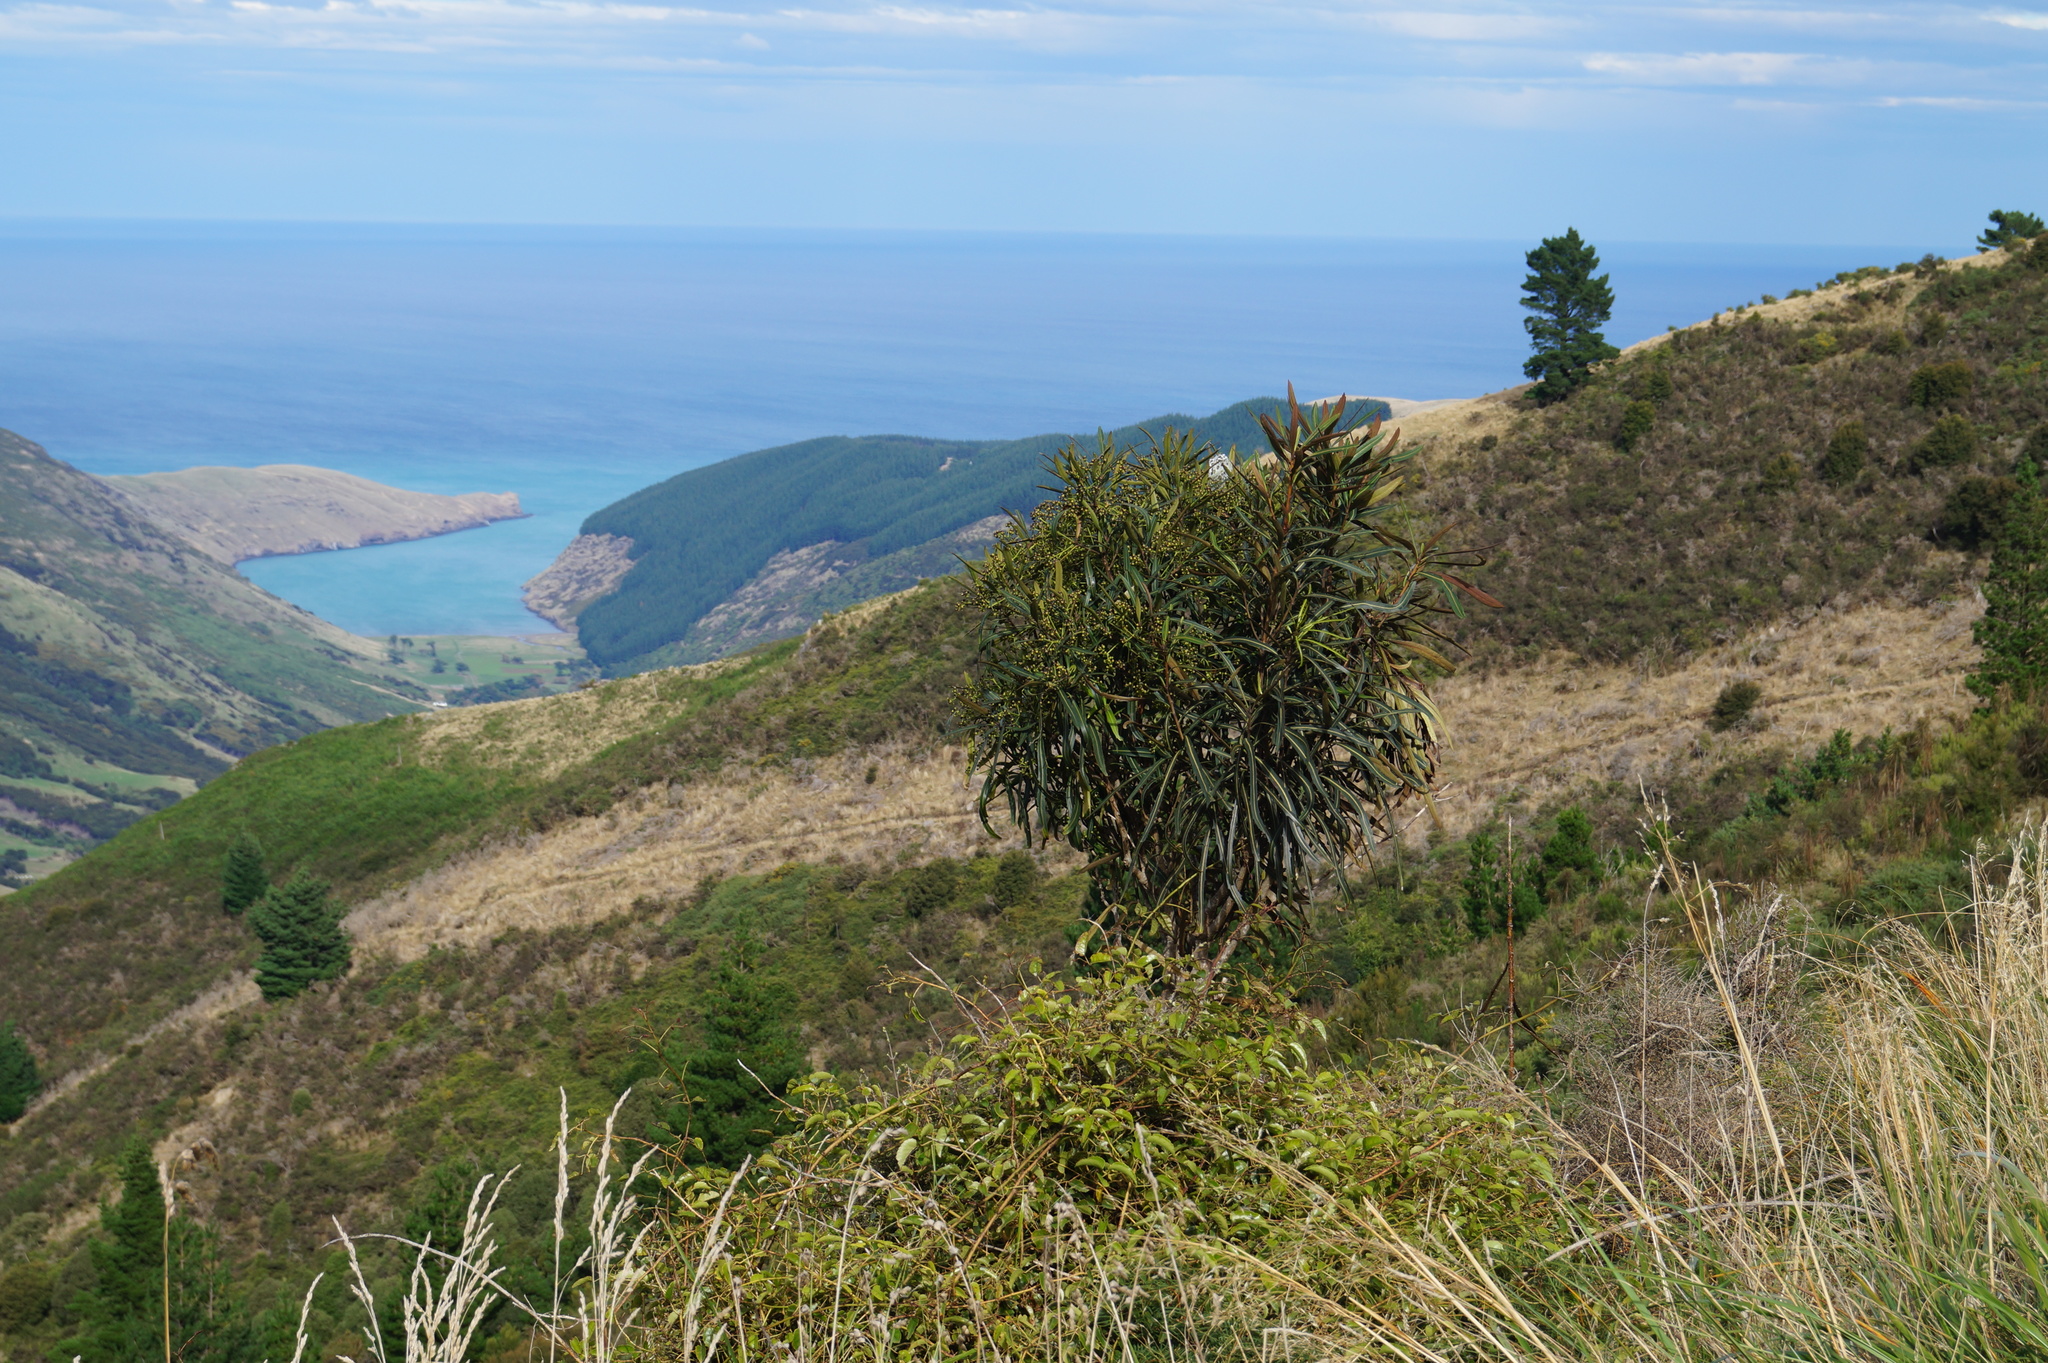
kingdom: Plantae
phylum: Tracheophyta
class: Magnoliopsida
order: Apiales
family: Araliaceae
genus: Pseudopanax
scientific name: Pseudopanax crassifolius
